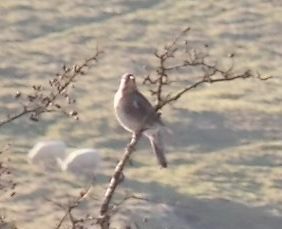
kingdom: Animalia
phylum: Chordata
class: Aves
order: Passeriformes
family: Turdidae
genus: Turdus
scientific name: Turdus pilaris
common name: Fieldfare
